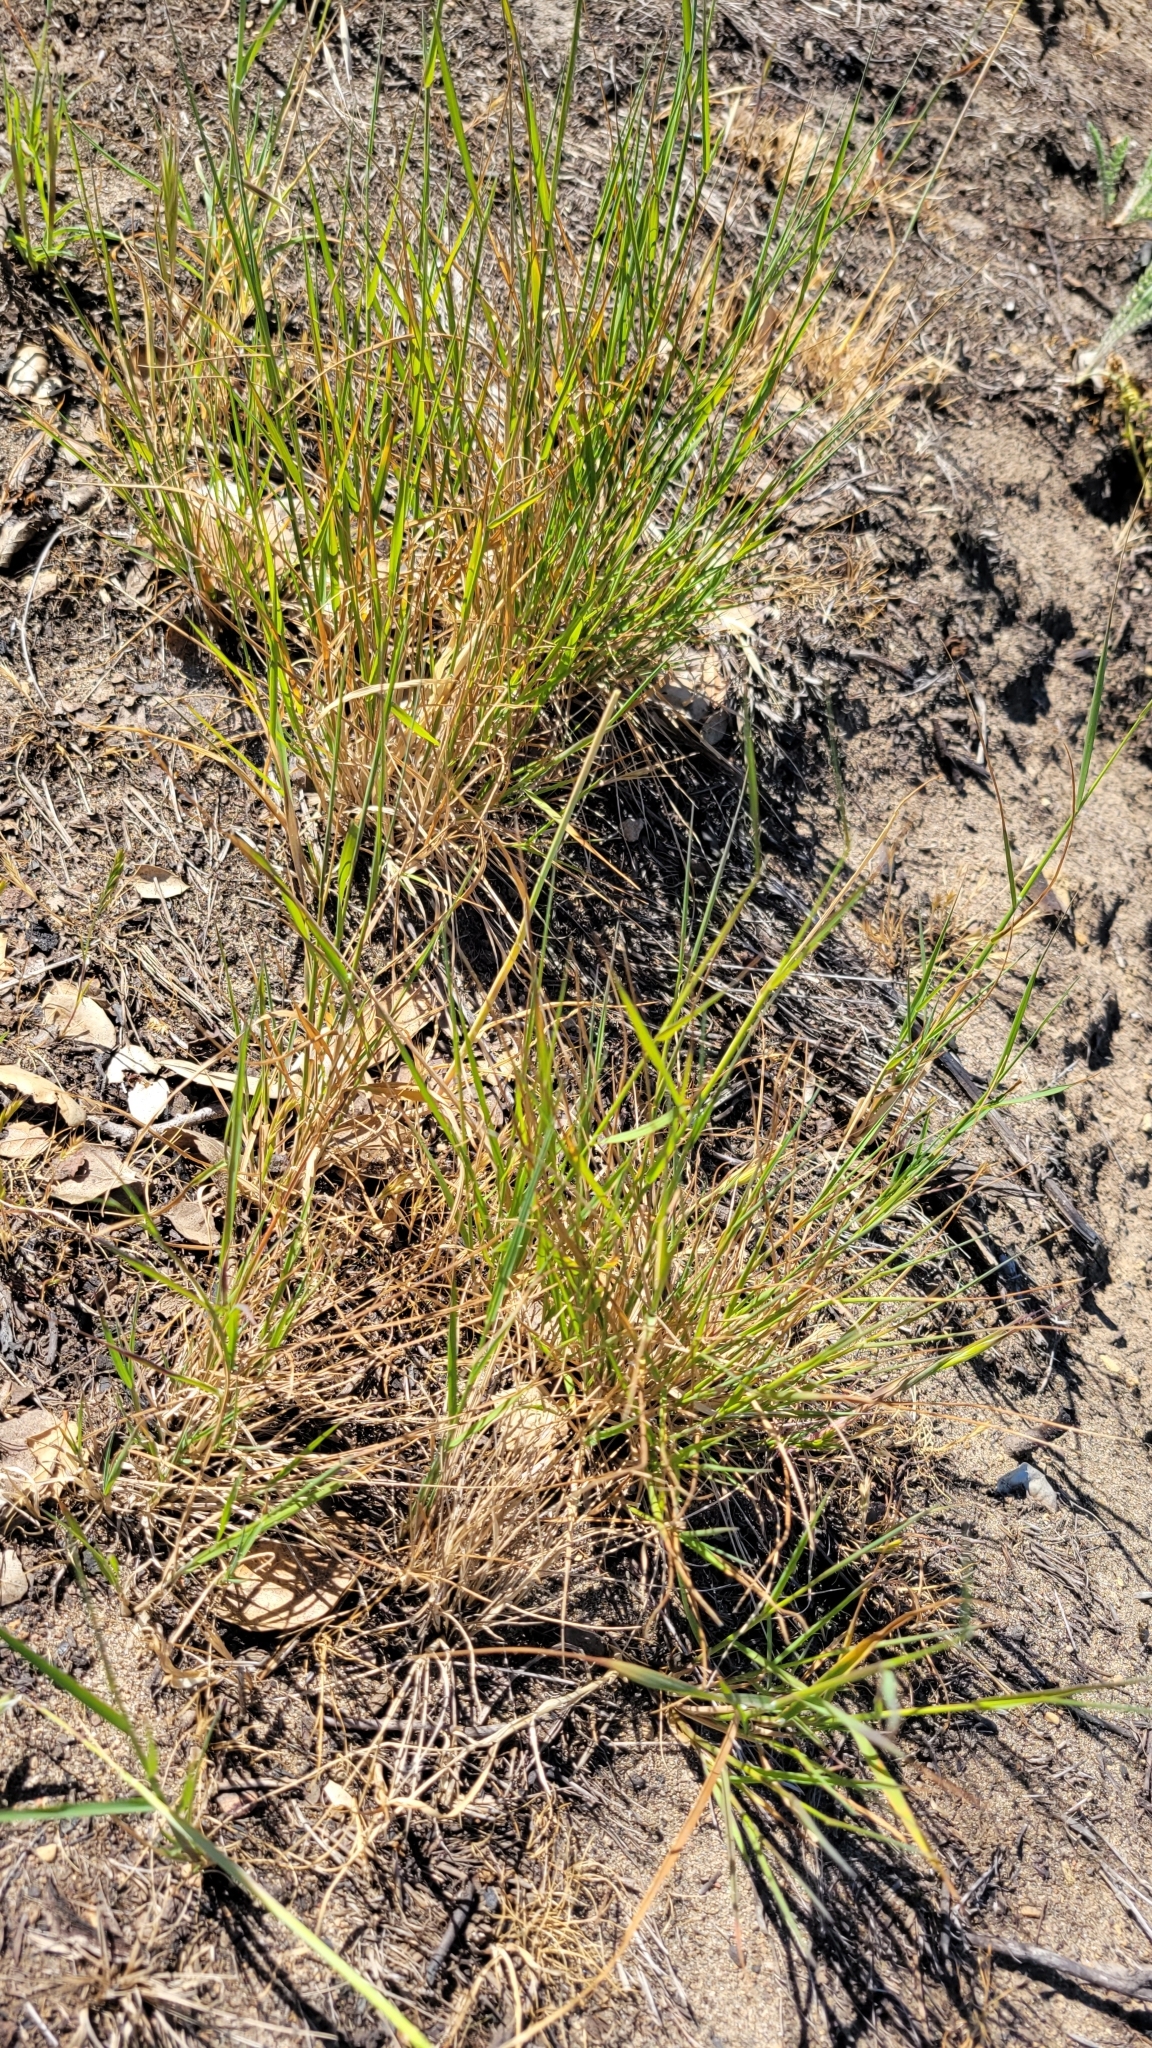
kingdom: Plantae
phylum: Tracheophyta
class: Liliopsida
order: Poales
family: Poaceae
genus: Agrostis
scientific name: Agrostis pallens
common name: Dune bent
